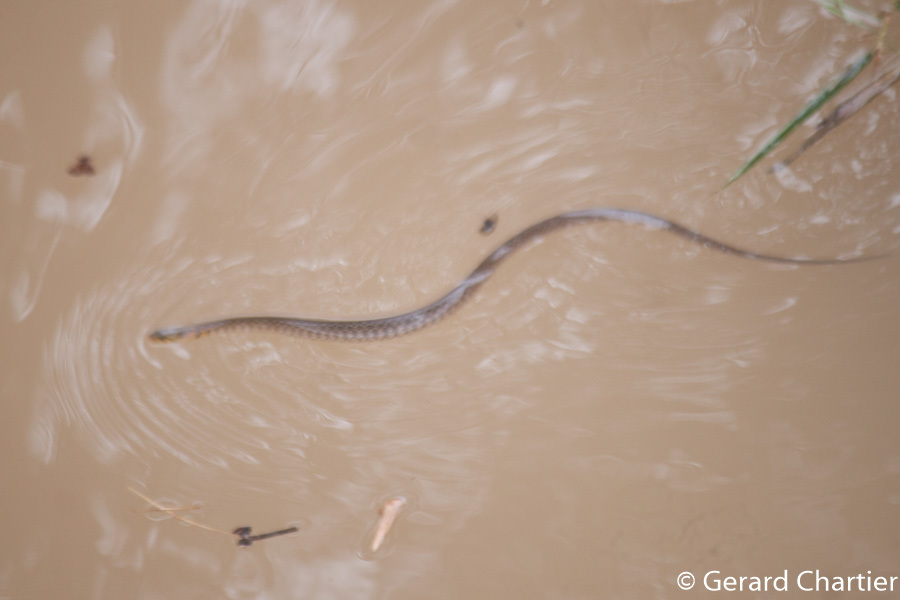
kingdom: Animalia
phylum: Chordata
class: Squamata
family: Colubridae
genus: Fowlea
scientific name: Fowlea flavipunctatus
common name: Yellow-spotted keelback
